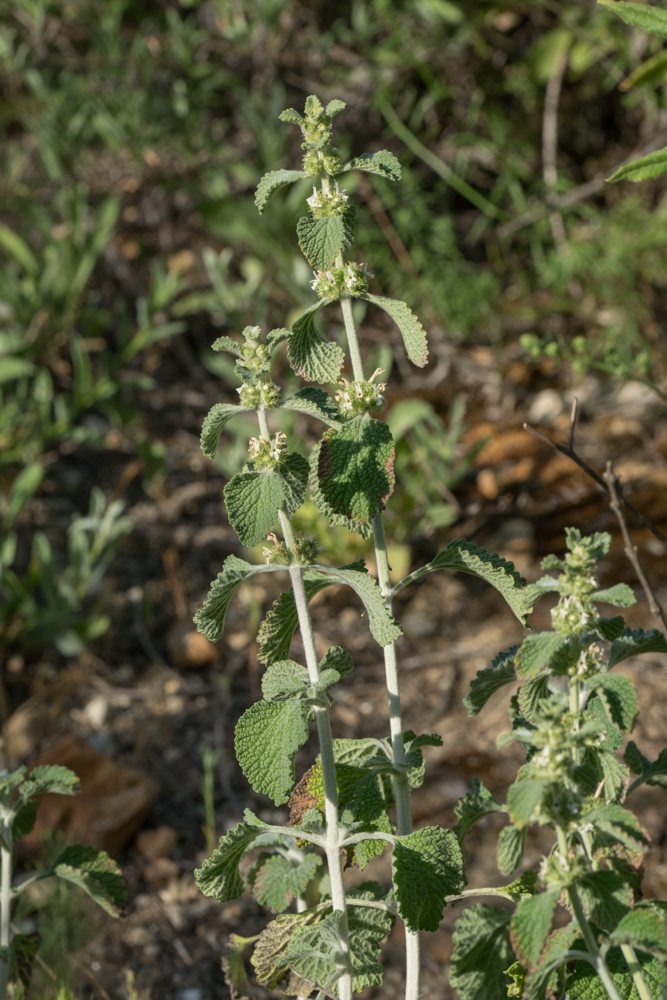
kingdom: Plantae
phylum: Tracheophyta
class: Magnoliopsida
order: Lamiales
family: Lamiaceae
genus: Marrubium
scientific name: Marrubium vulgare
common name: Horehound
